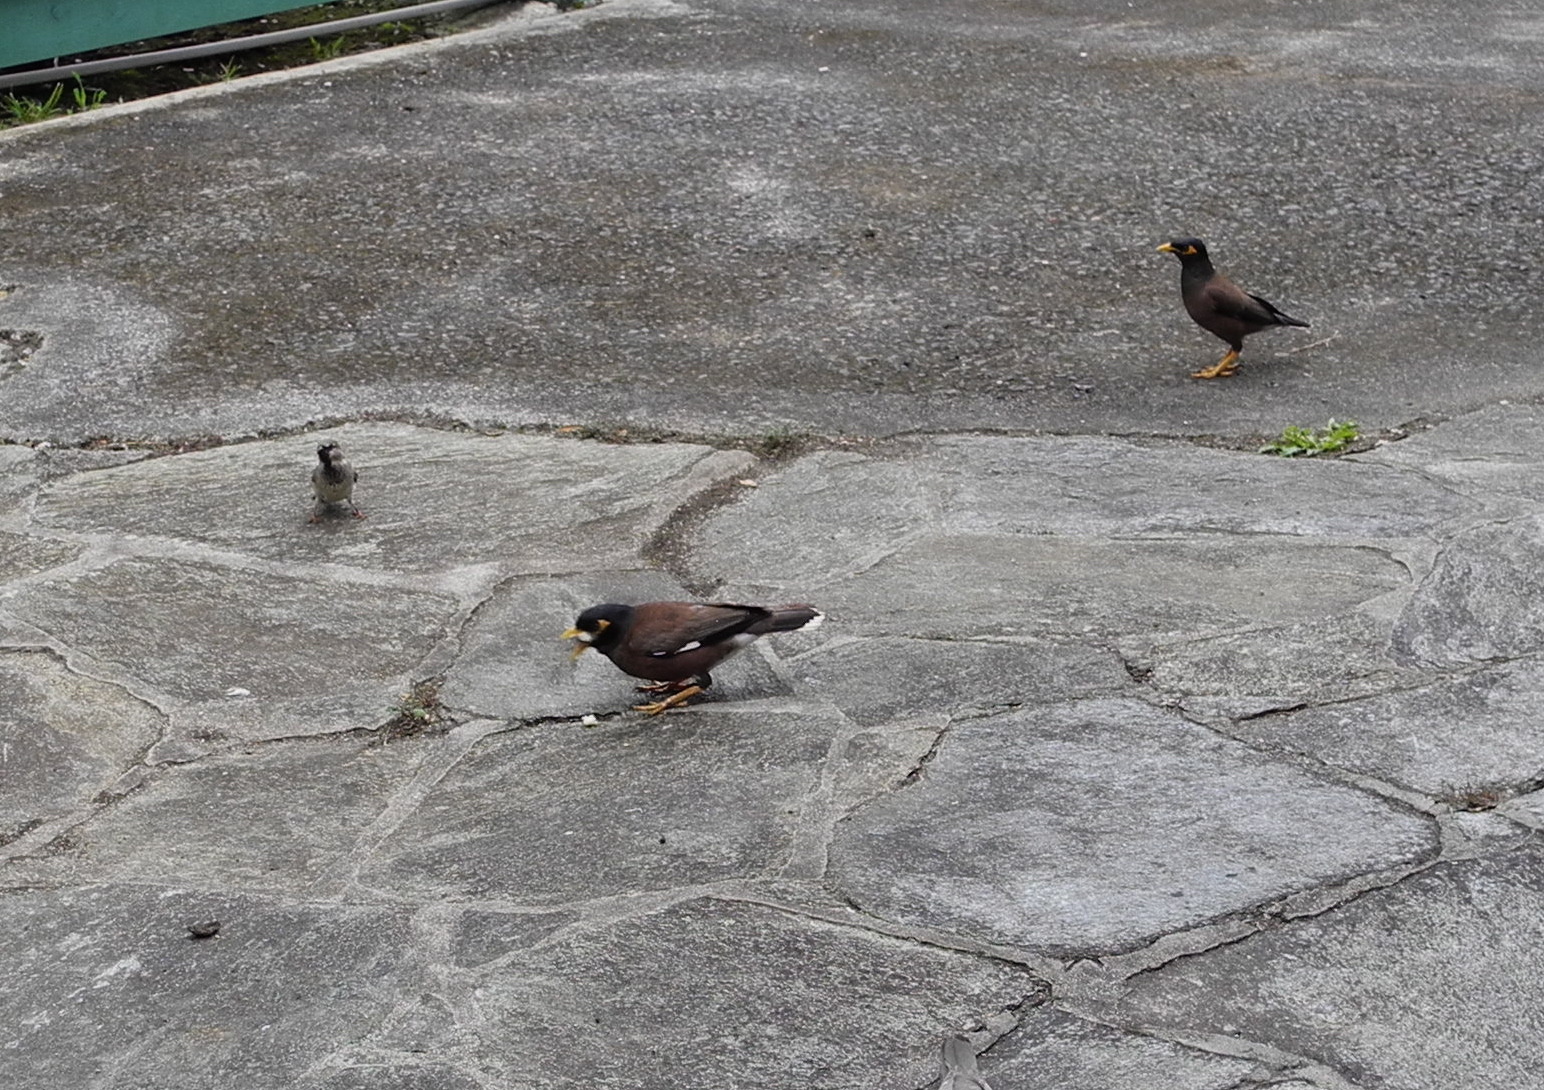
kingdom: Animalia
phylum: Chordata
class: Aves
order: Passeriformes
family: Sturnidae
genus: Acridotheres
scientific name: Acridotheres tristis
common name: Common myna
